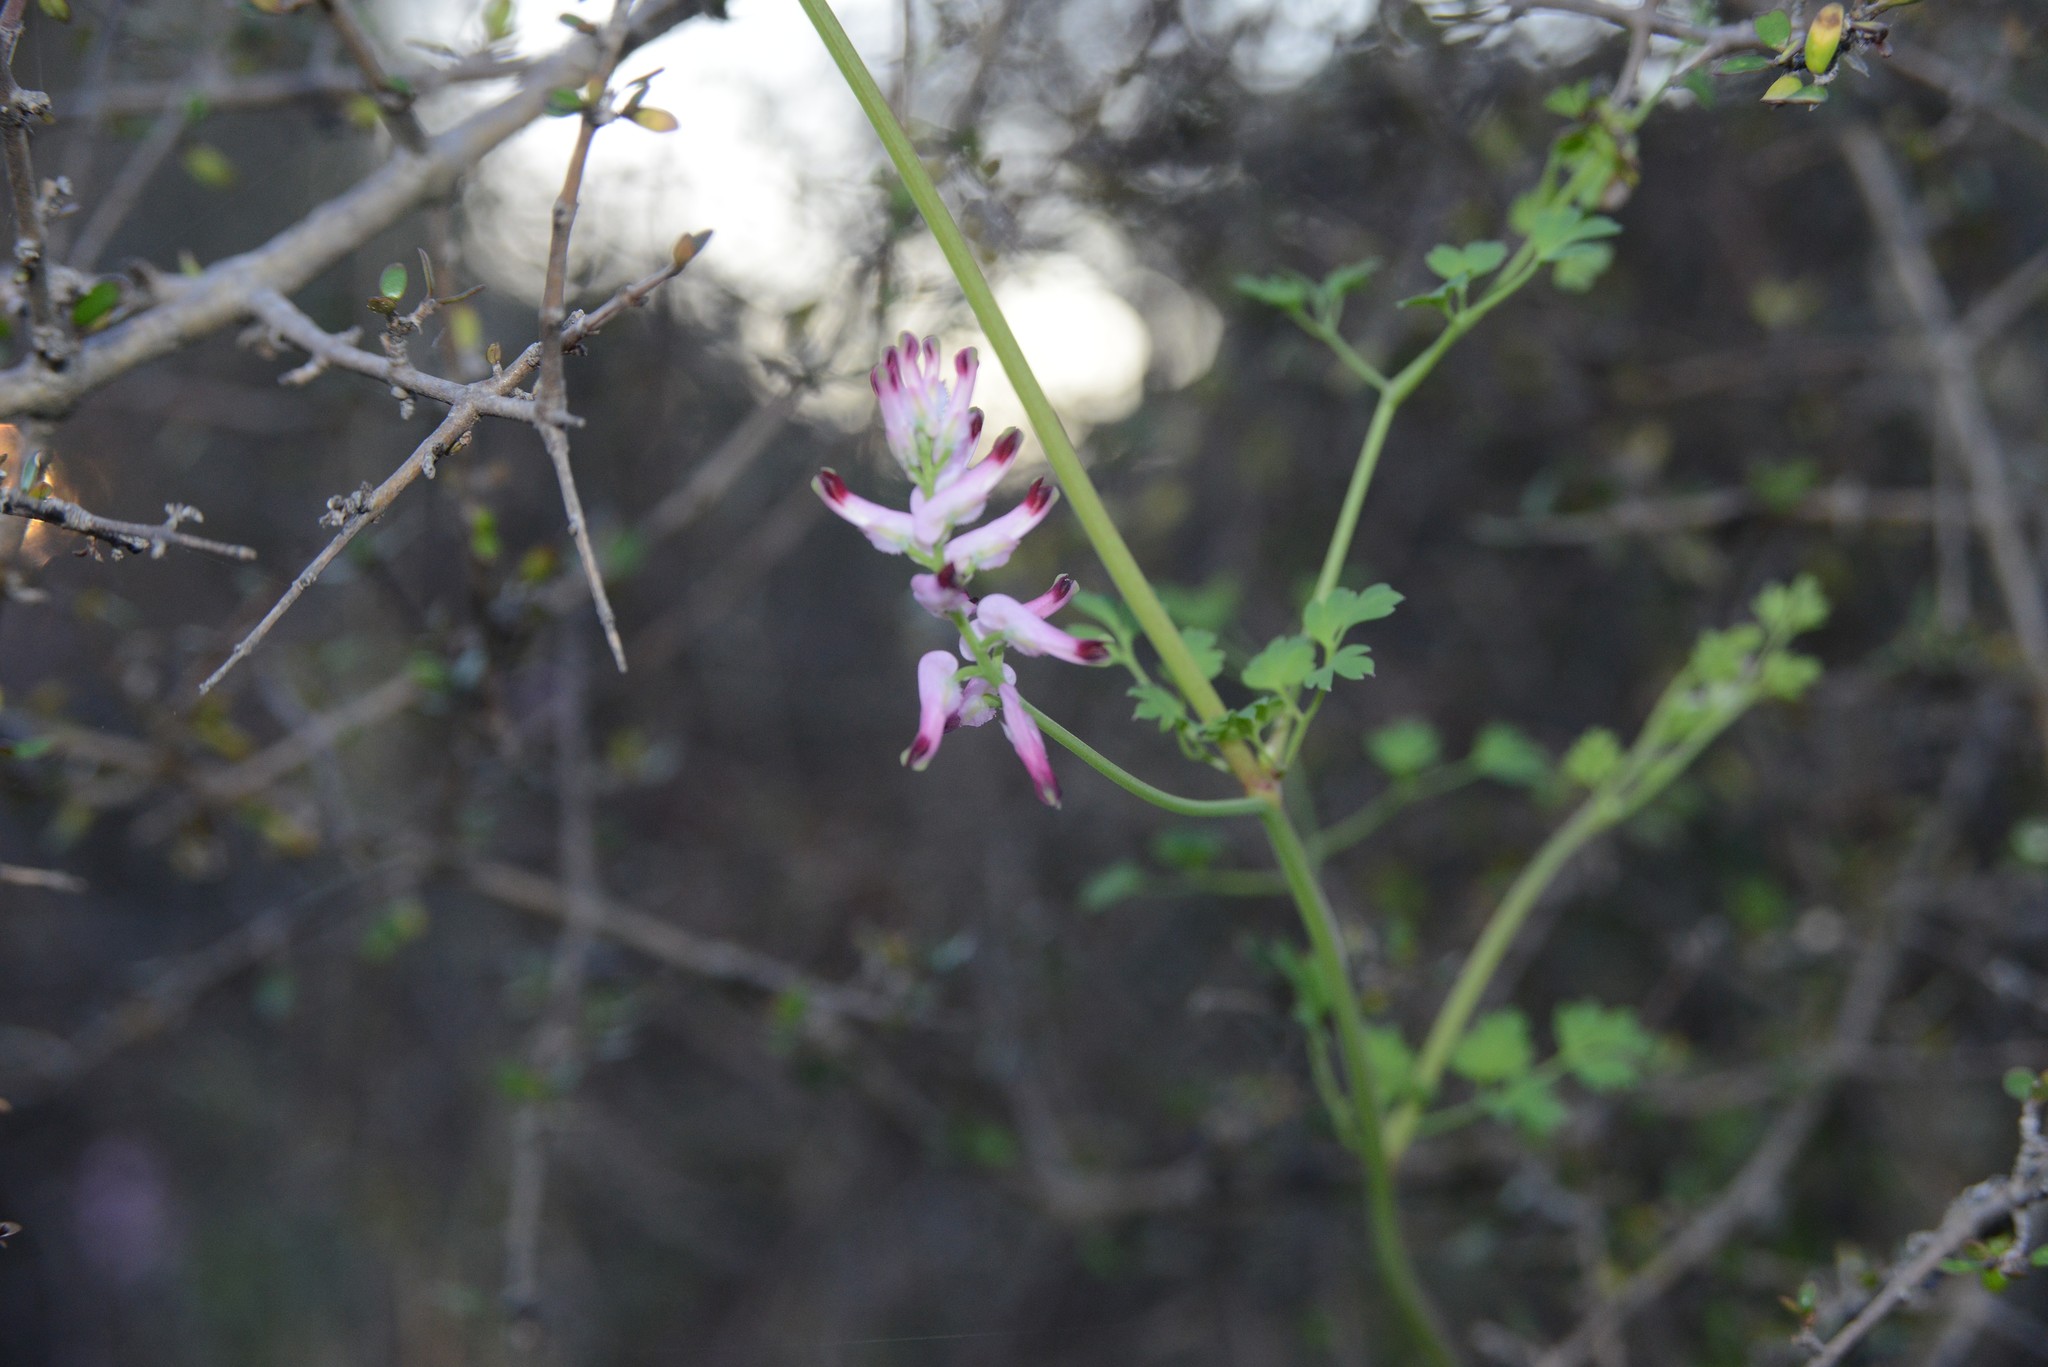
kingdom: Plantae
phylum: Tracheophyta
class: Magnoliopsida
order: Ranunculales
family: Papaveraceae
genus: Fumaria
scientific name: Fumaria muralis
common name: Common ramping-fumitory
